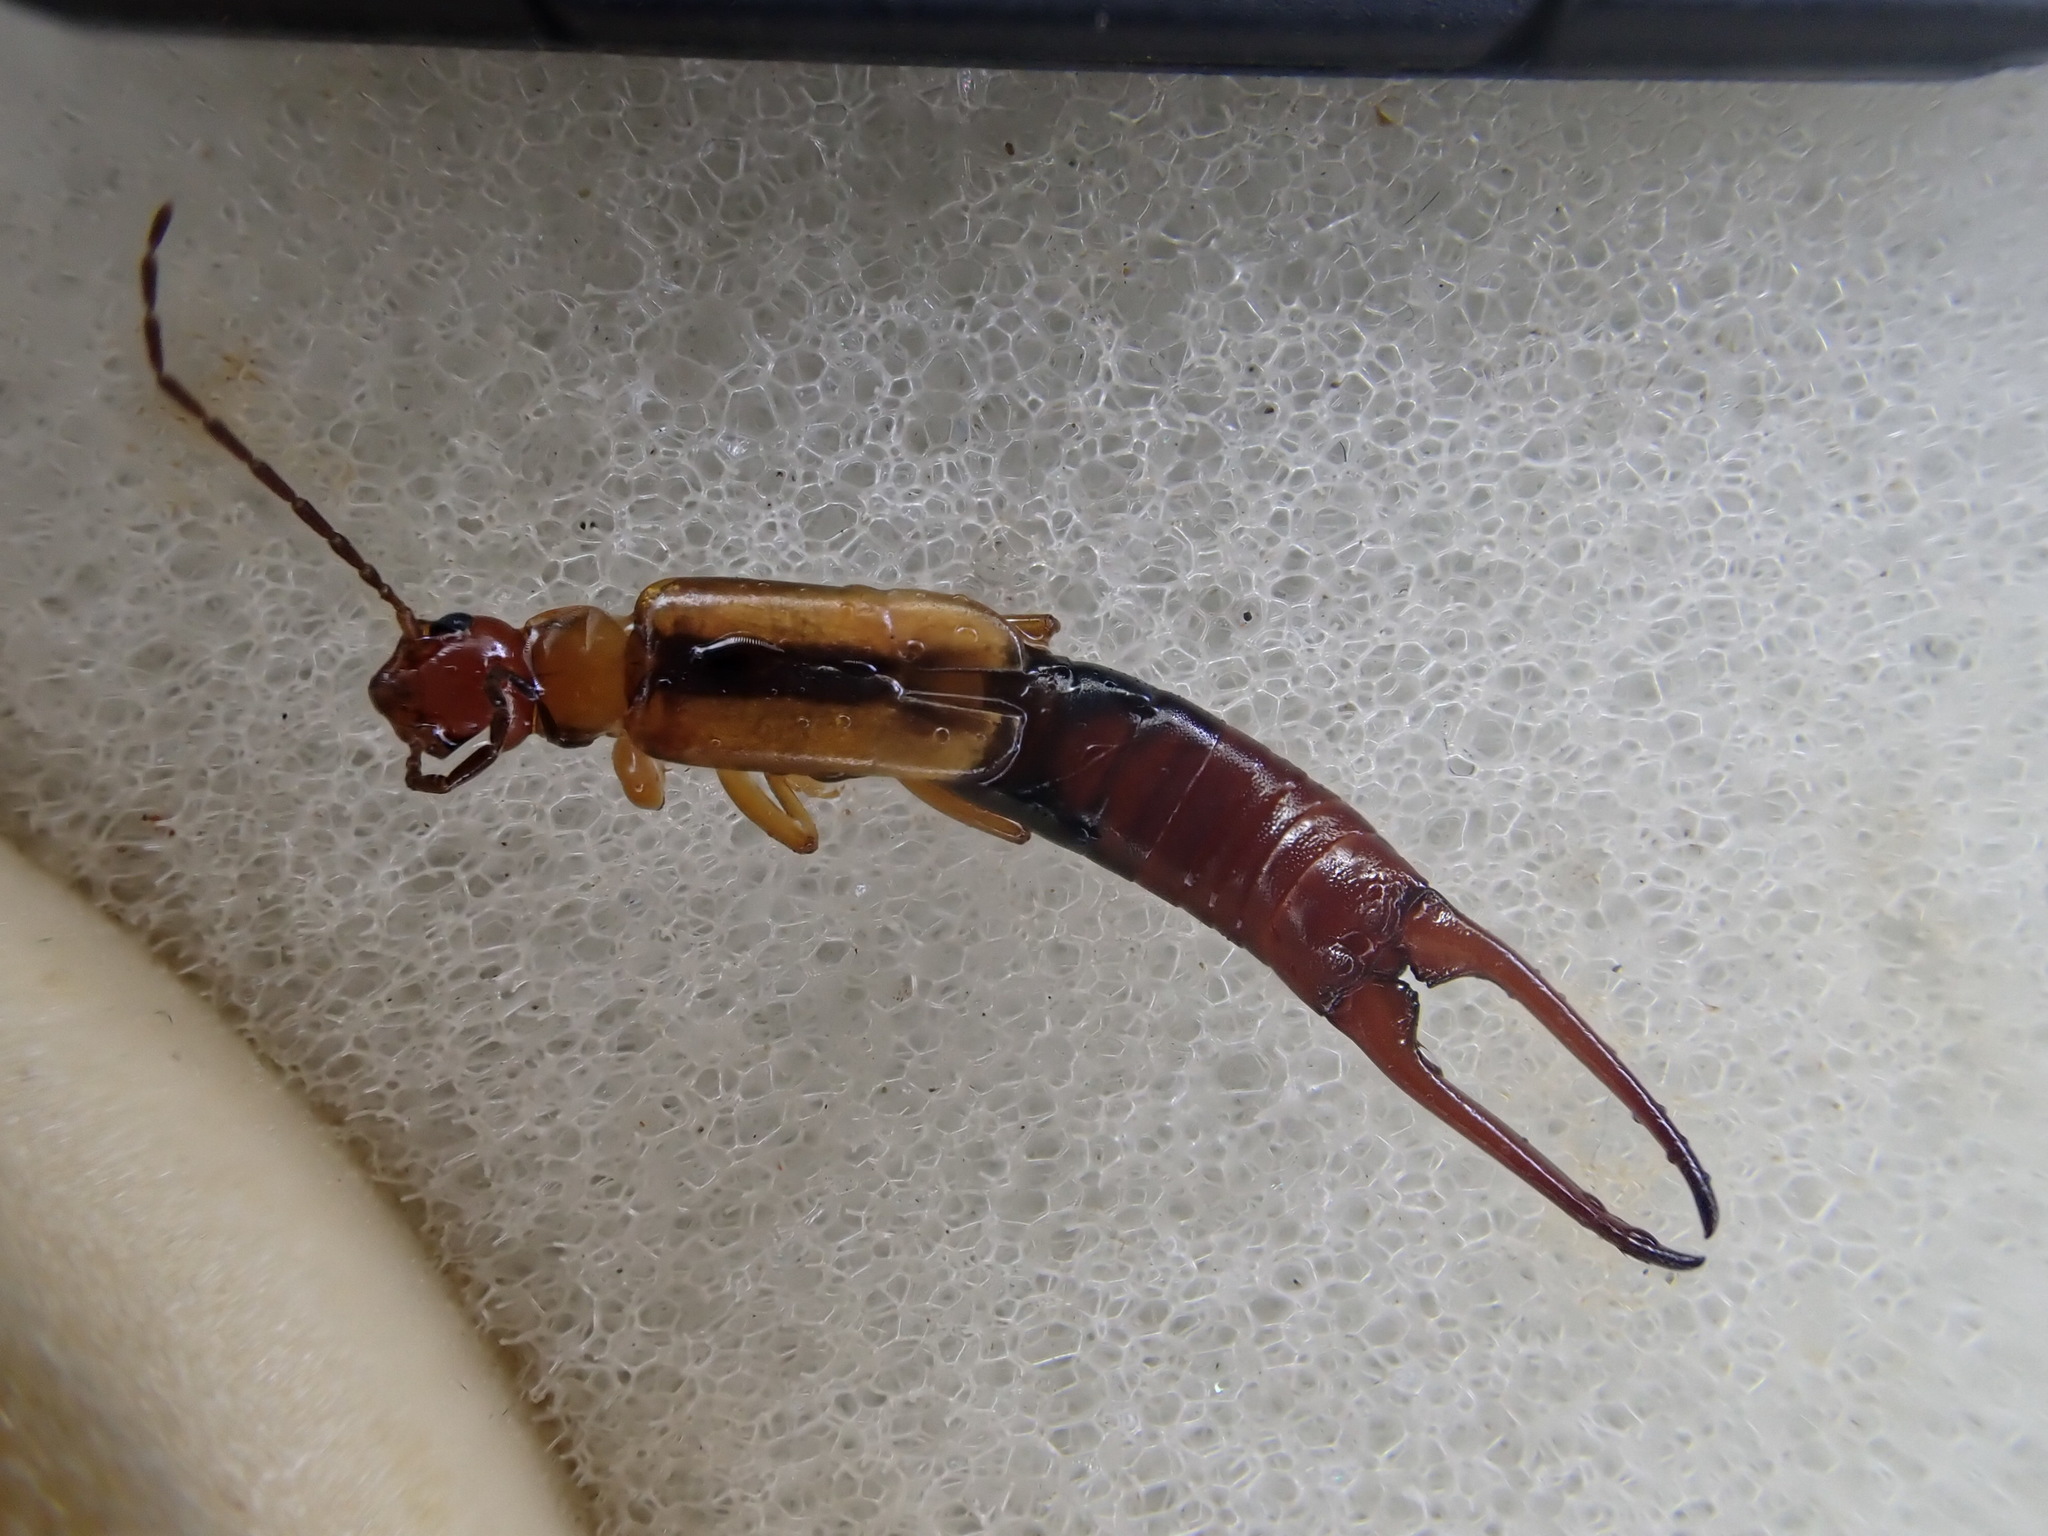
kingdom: Animalia
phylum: Arthropoda
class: Insecta
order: Dermaptera
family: Forficulidae
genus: Elaunon
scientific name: Elaunon bipartitus
